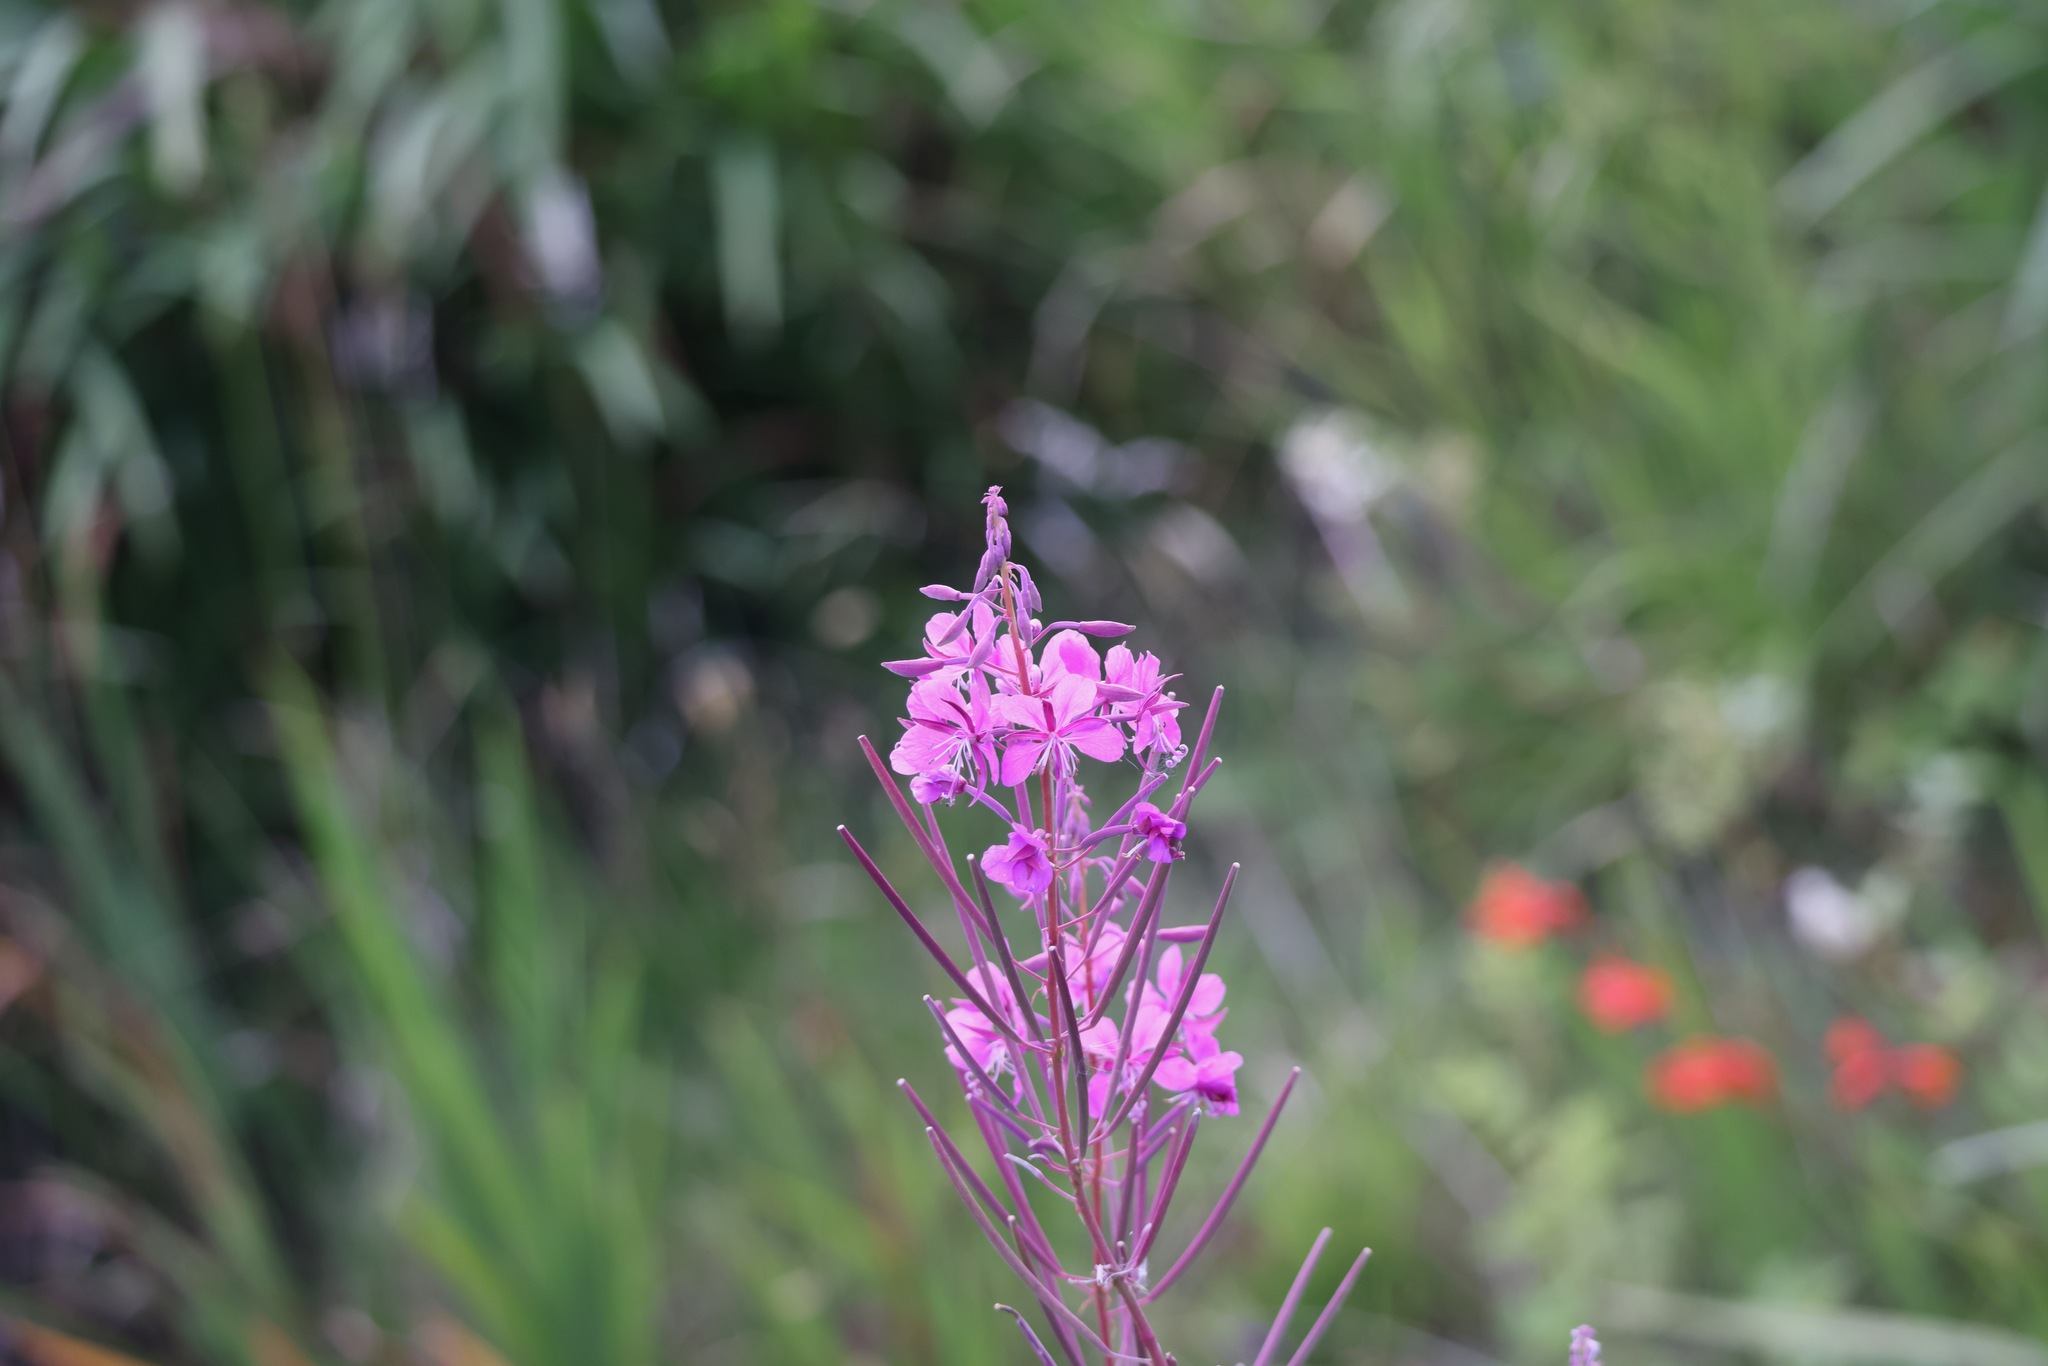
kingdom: Plantae
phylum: Tracheophyta
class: Magnoliopsida
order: Myrtales
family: Onagraceae
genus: Chamaenerion
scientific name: Chamaenerion angustifolium
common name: Fireweed
